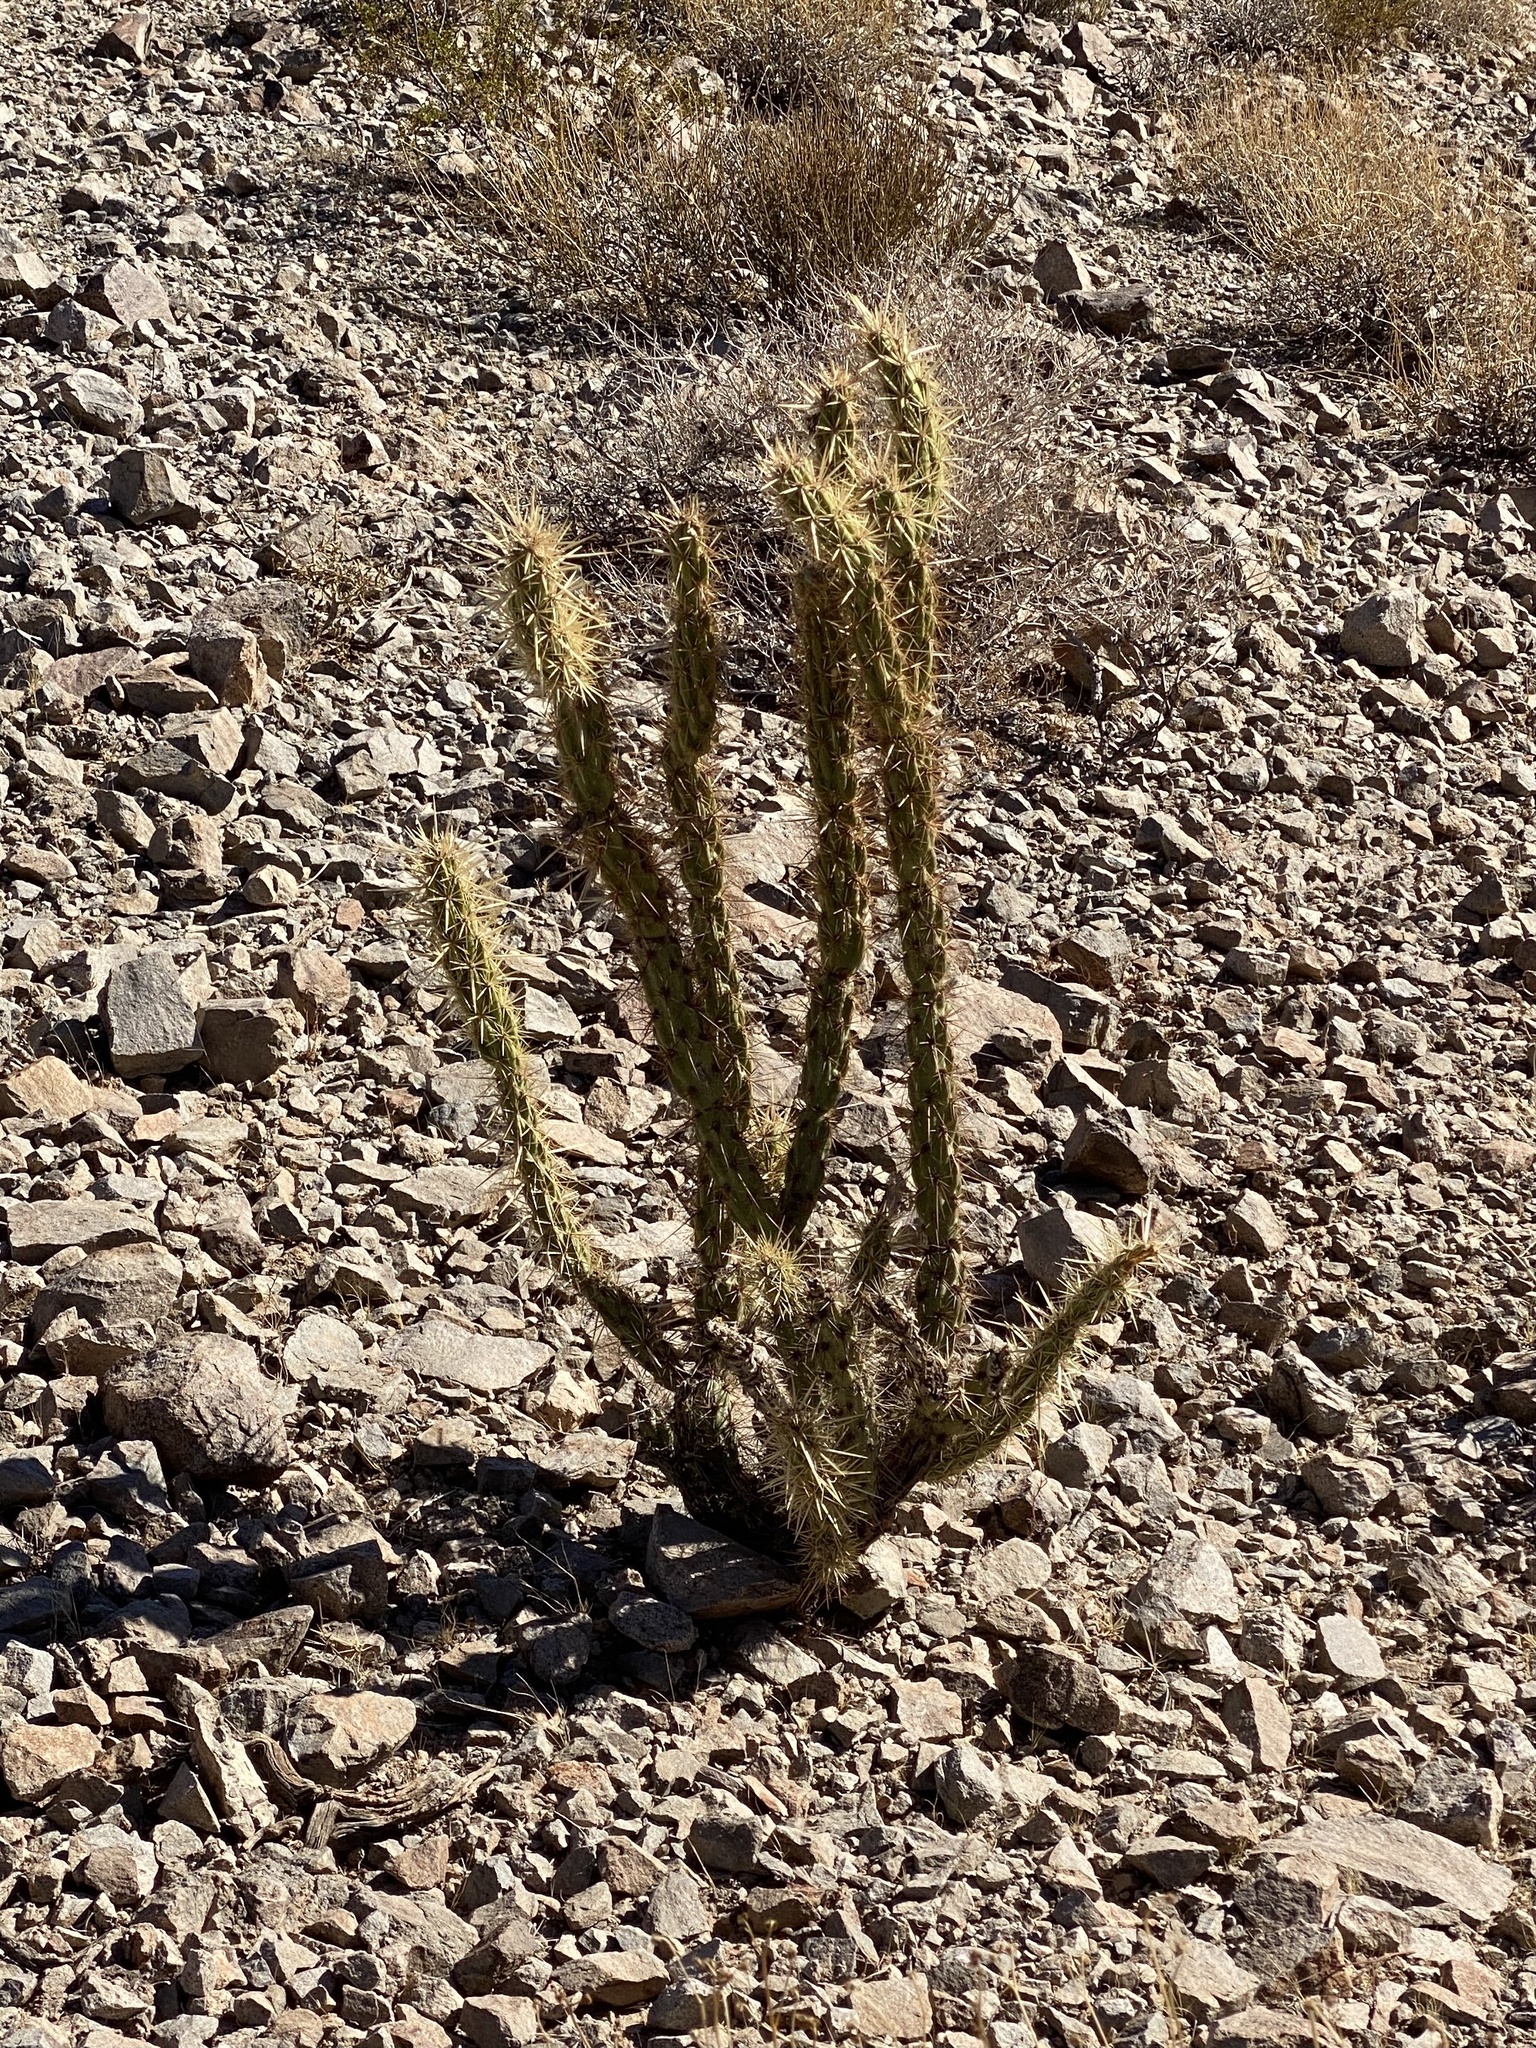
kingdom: Plantae
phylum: Tracheophyta
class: Magnoliopsida
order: Caryophyllales
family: Cactaceae
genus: Cylindropuntia
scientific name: Cylindropuntia acanthocarpa
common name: Buckhorn cholla
